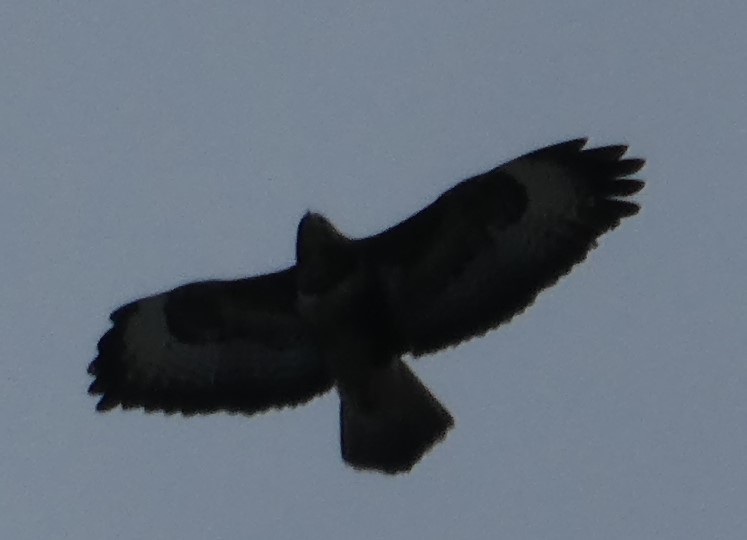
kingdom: Animalia
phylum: Chordata
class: Aves
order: Accipitriformes
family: Accipitridae
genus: Buteo
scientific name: Buteo buteo
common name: Common buzzard
